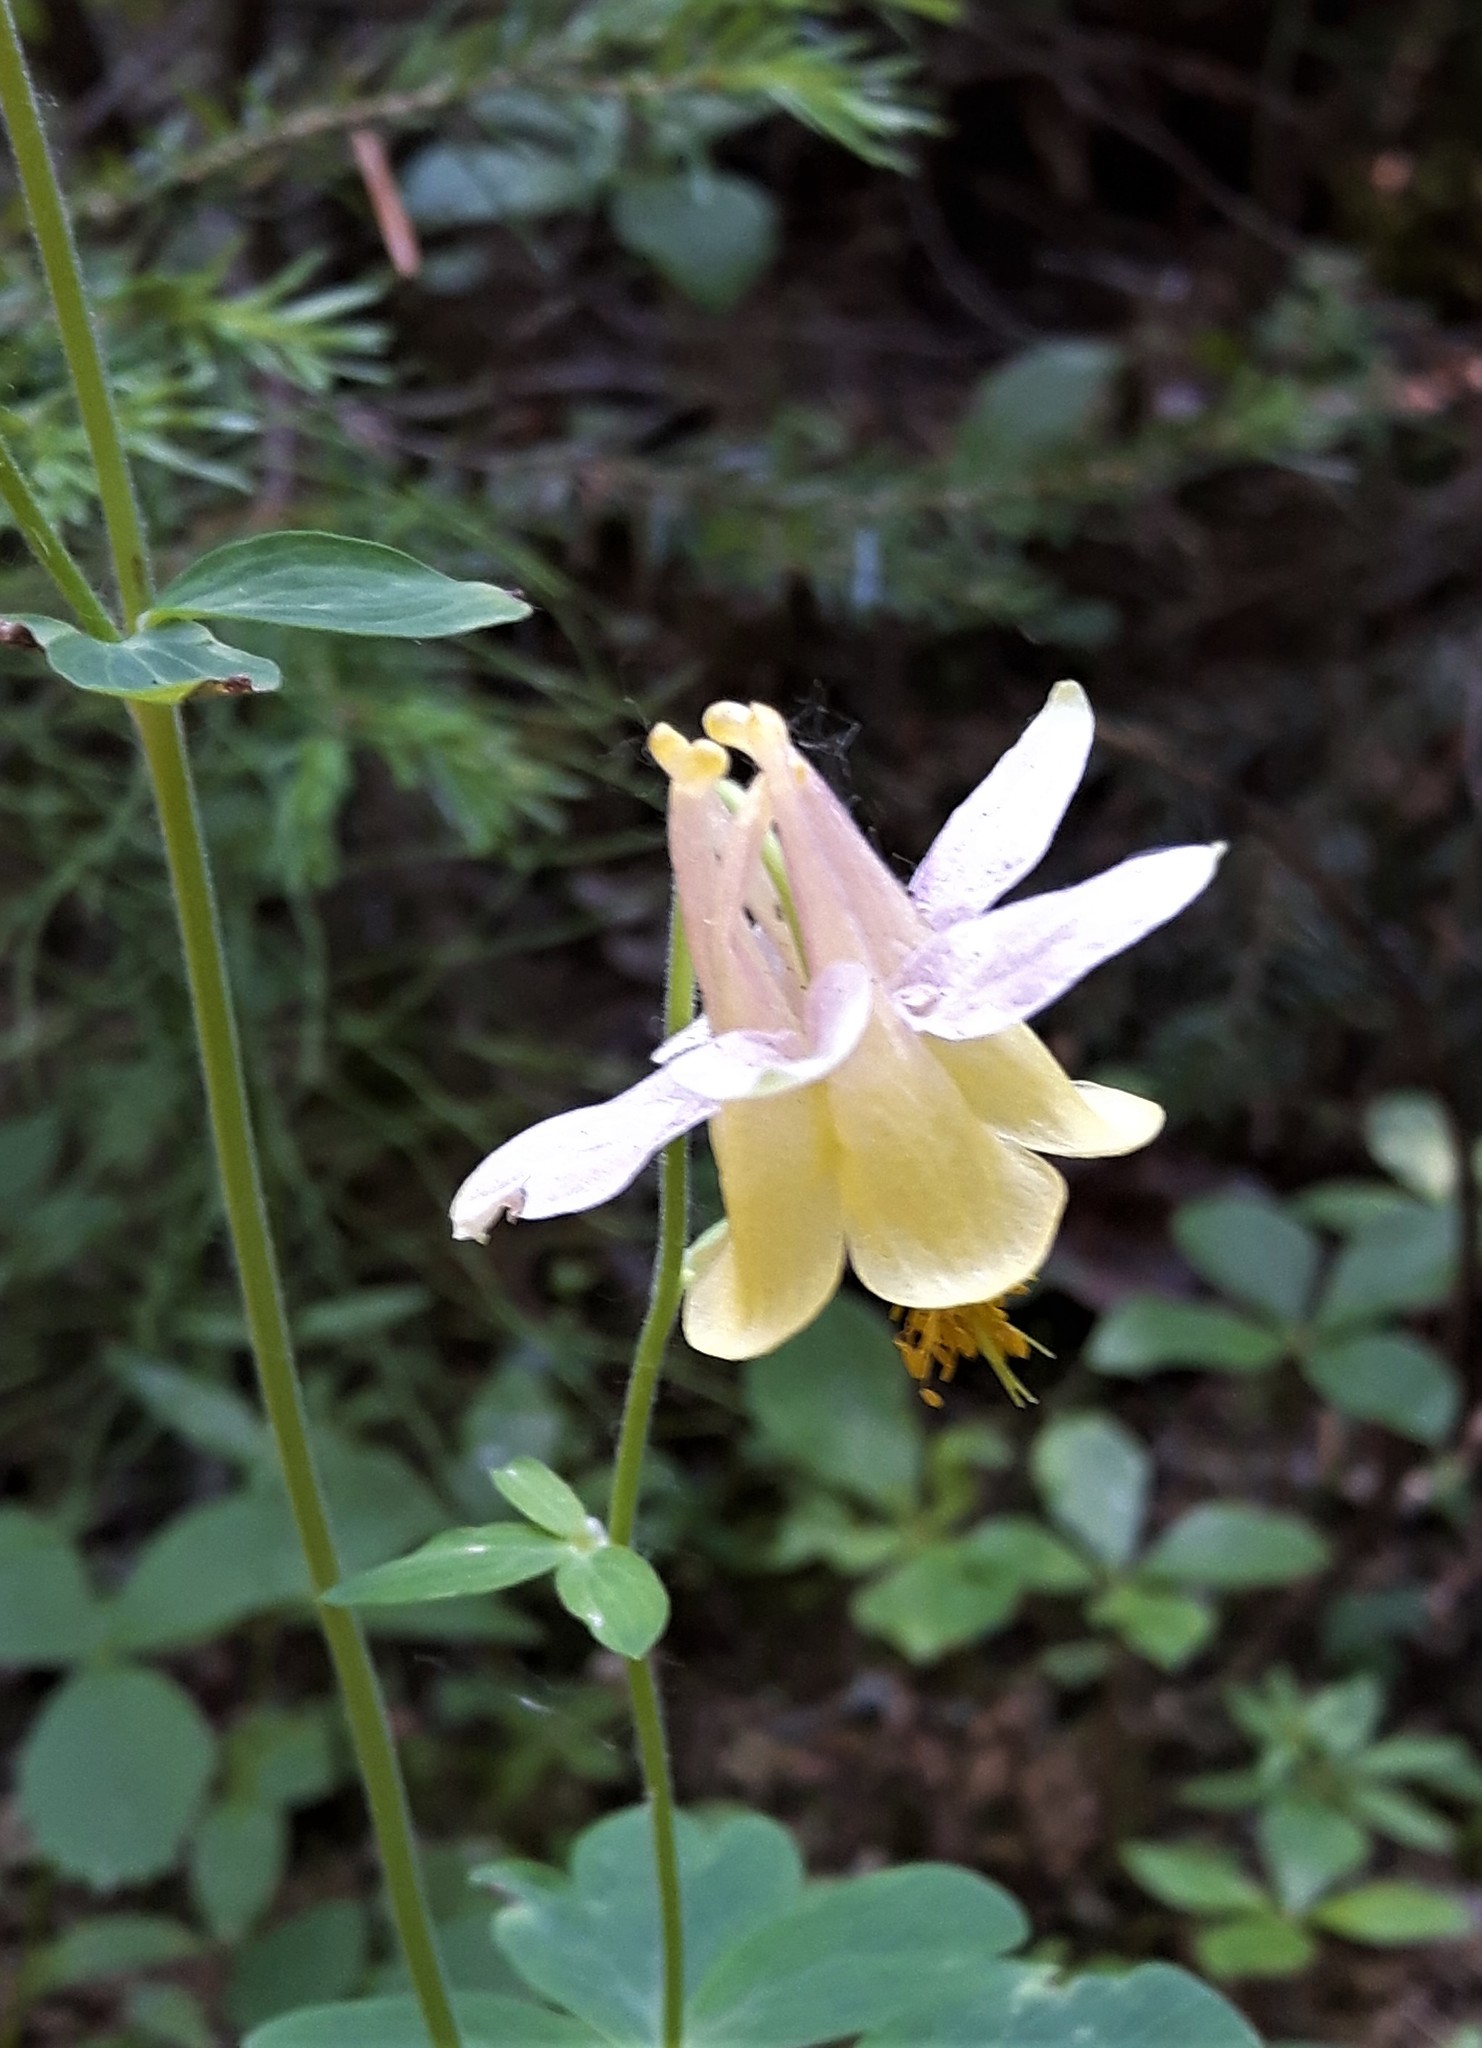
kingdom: Plantae
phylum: Tracheophyta
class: Magnoliopsida
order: Ranunculales
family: Ranunculaceae
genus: Aquilegia
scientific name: Aquilegia flavescens
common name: Yellow columbine
